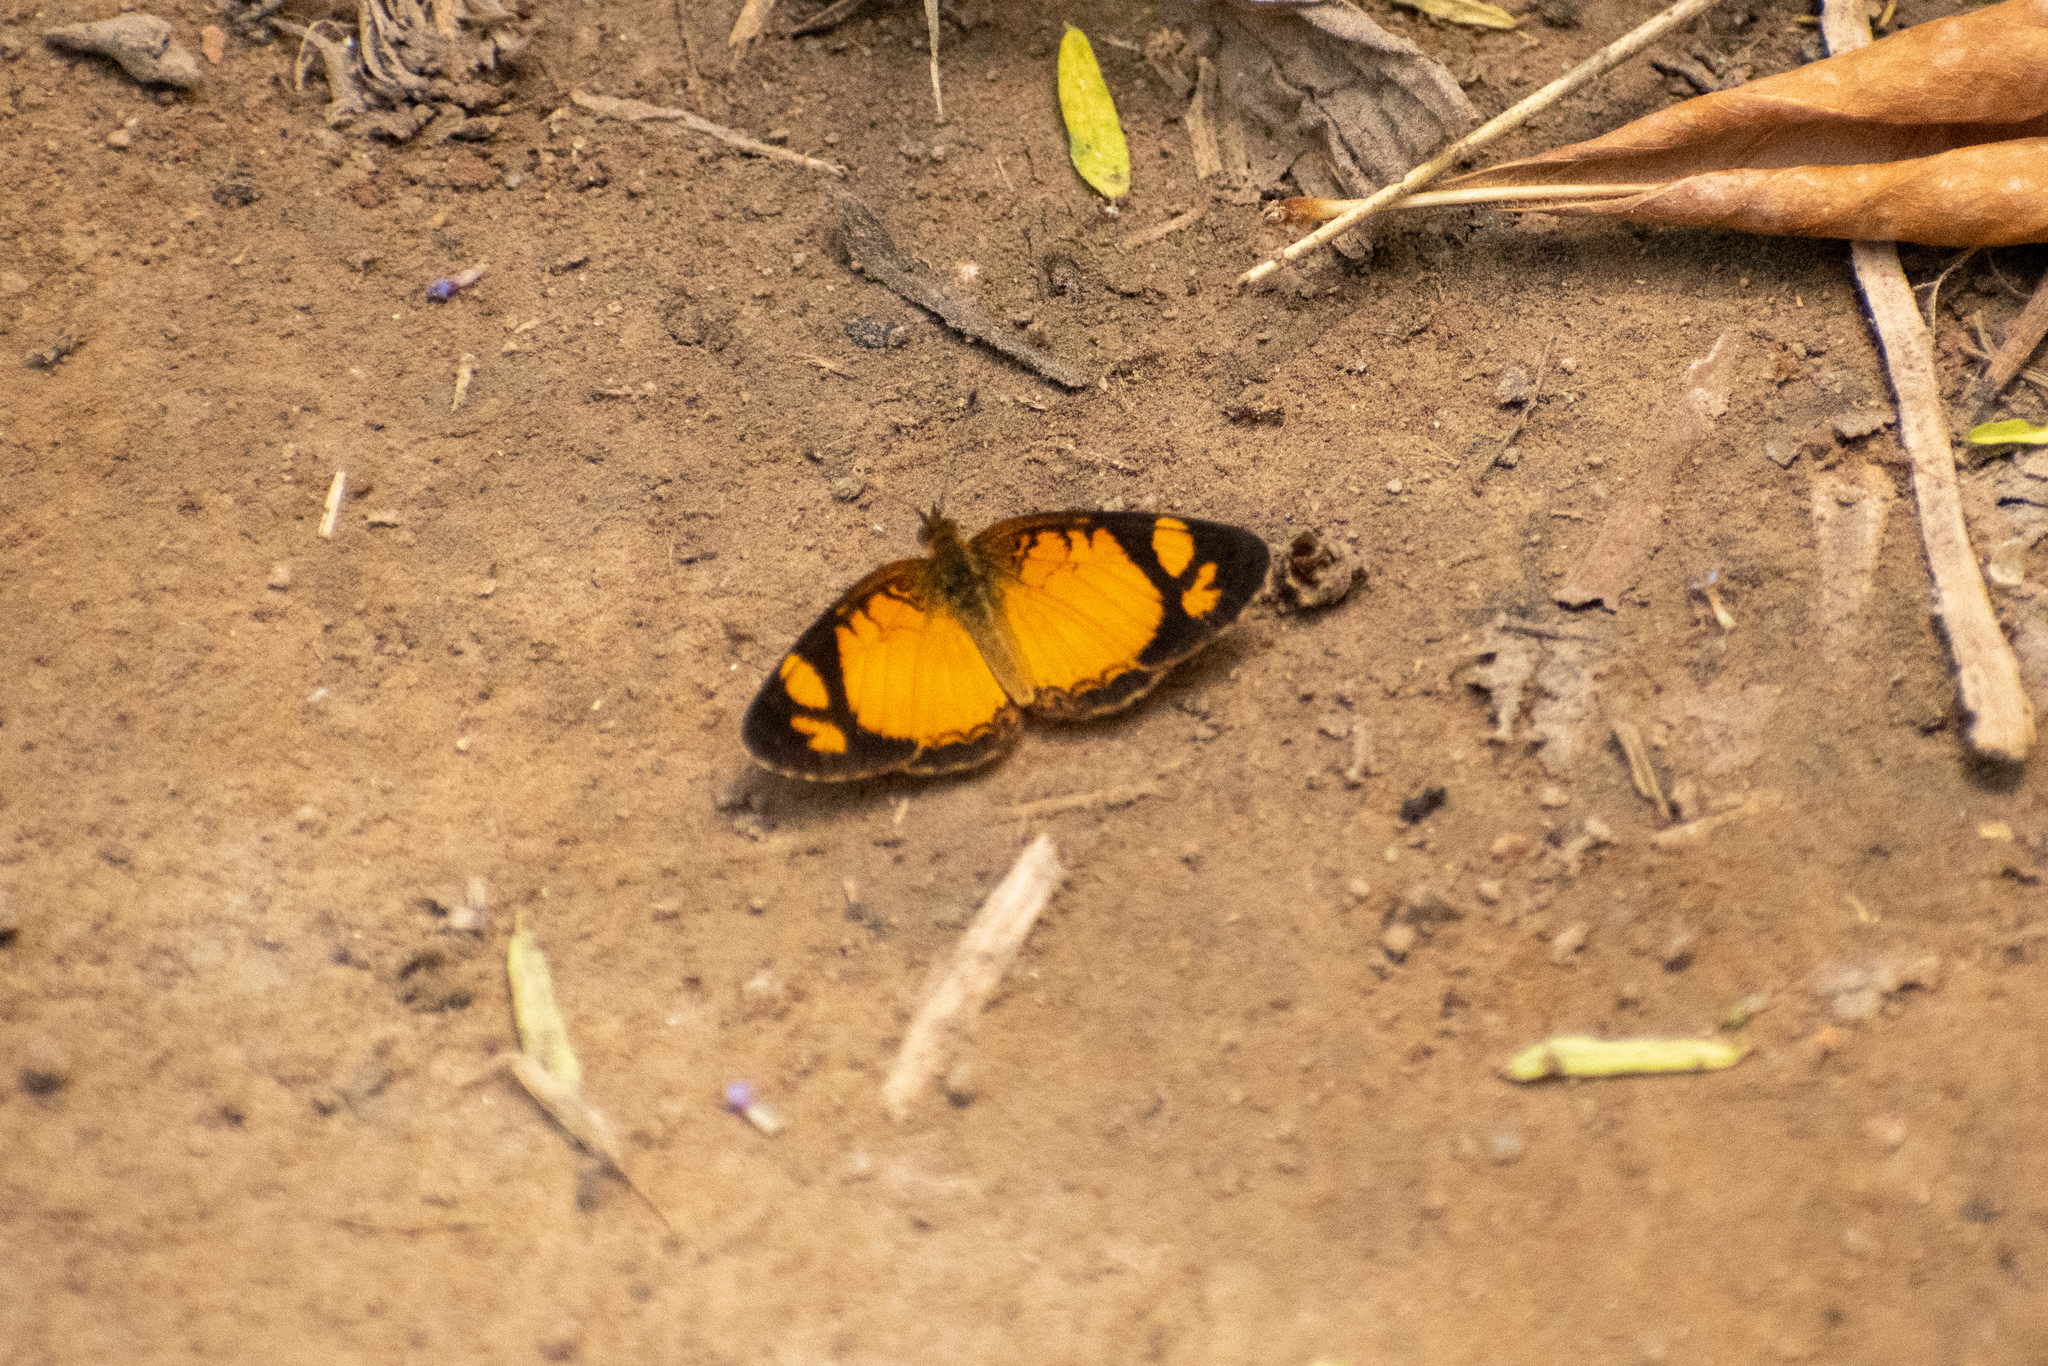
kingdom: Animalia
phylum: Arthropoda
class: Insecta
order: Lepidoptera
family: Nymphalidae
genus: Tegosa
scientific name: Tegosa claudina
